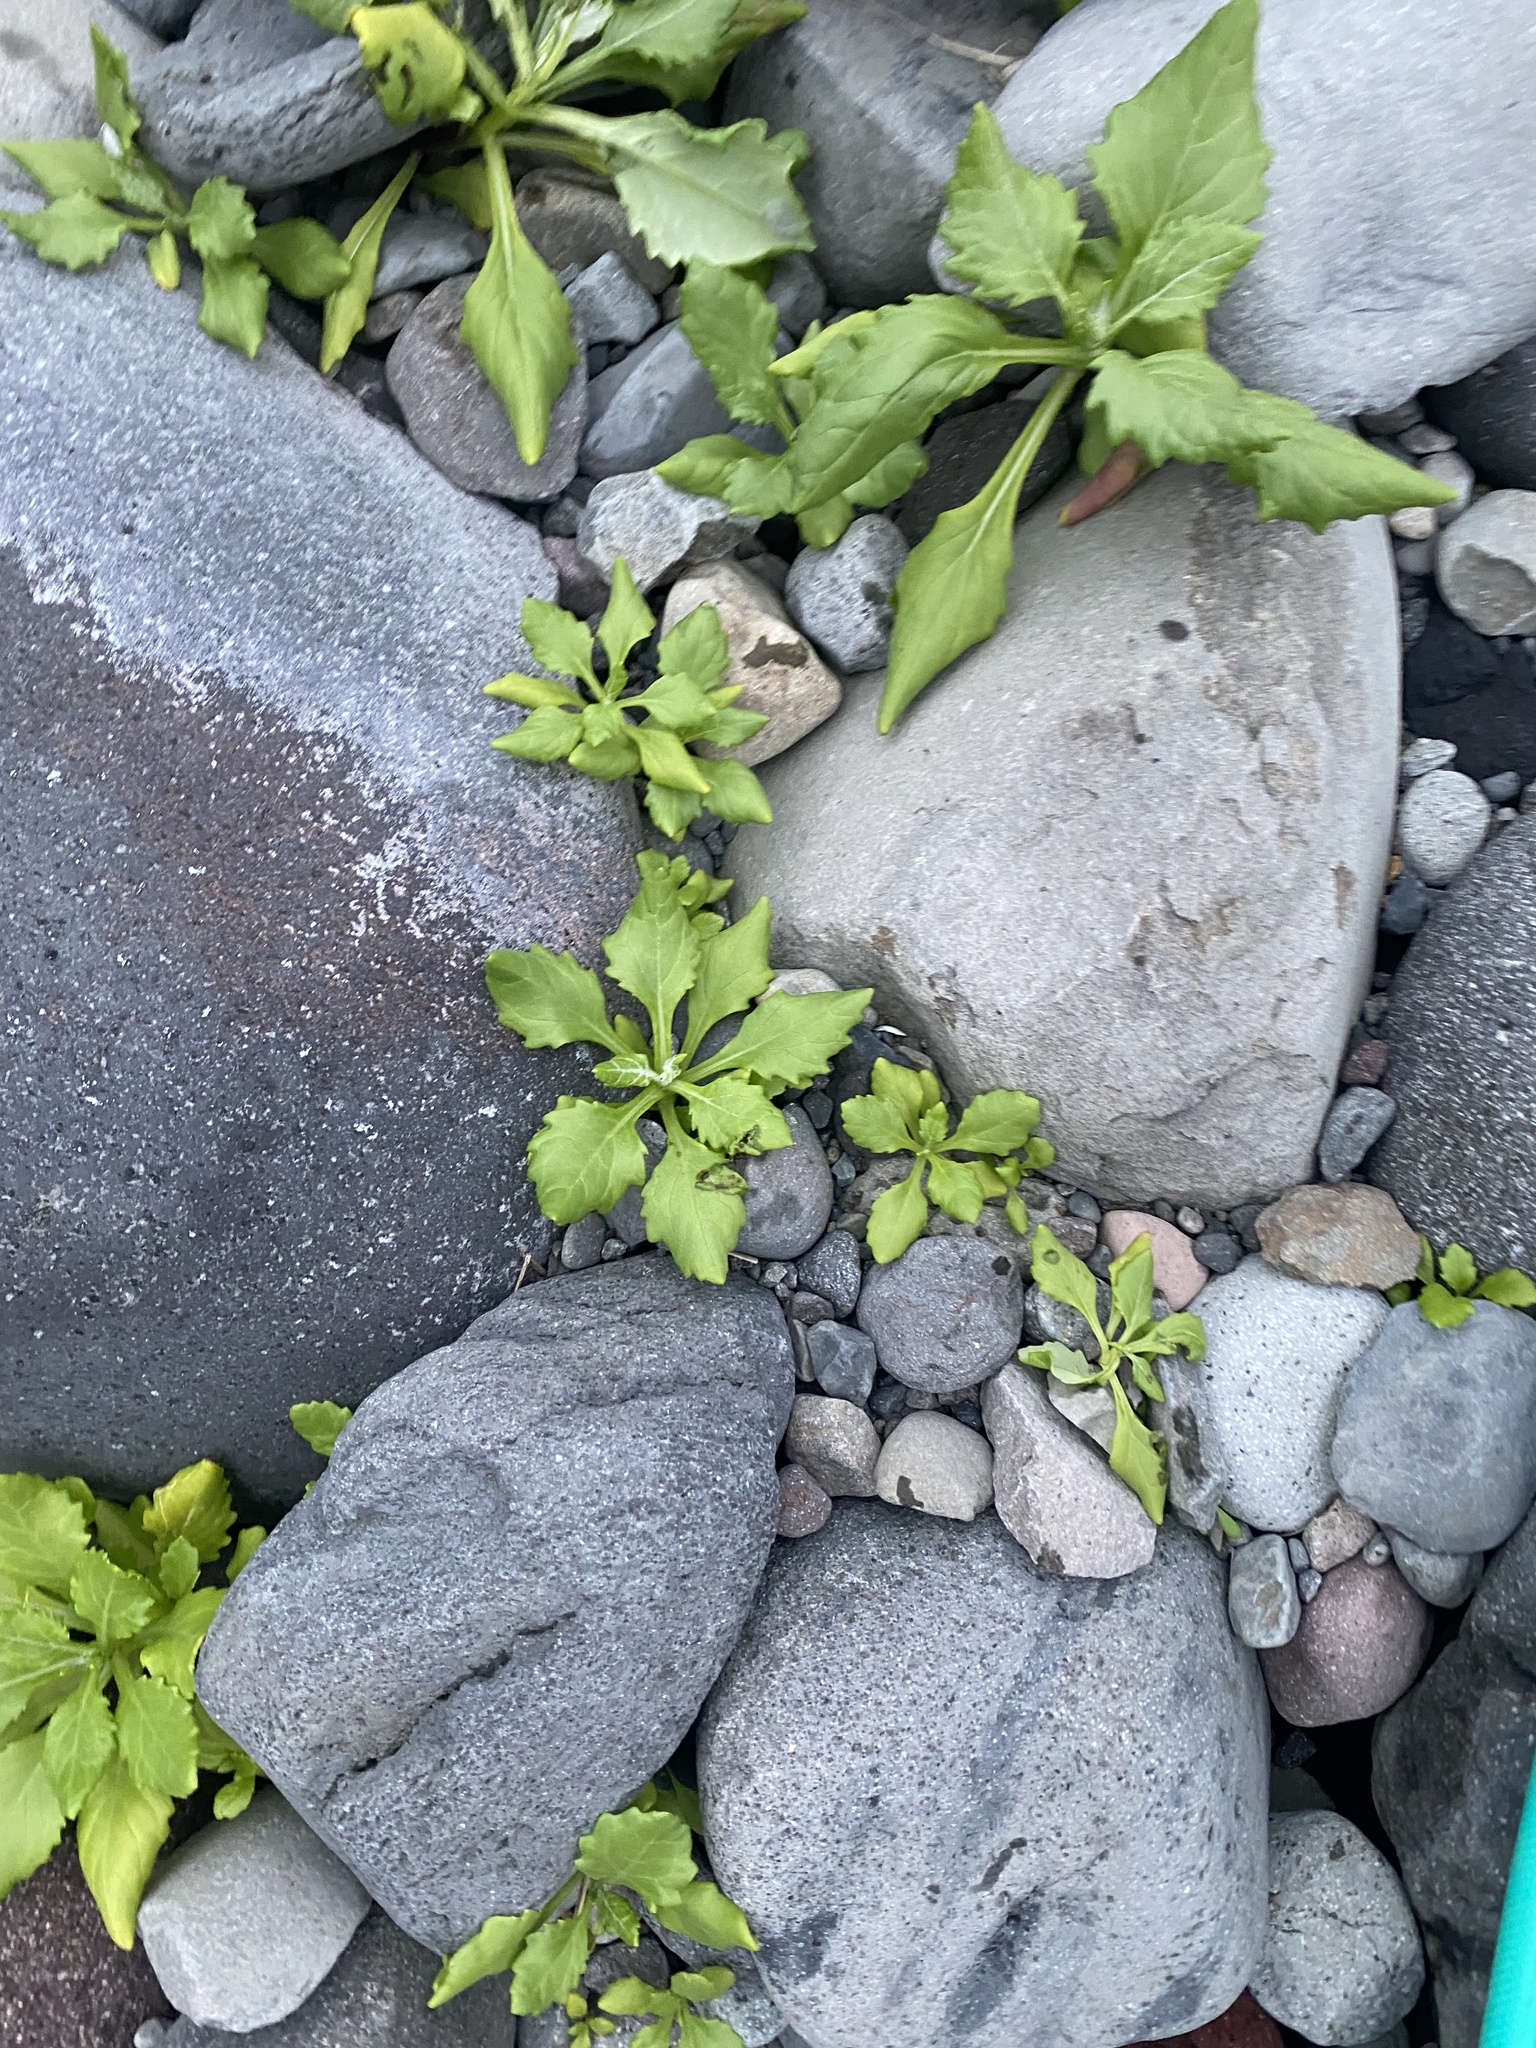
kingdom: Plantae
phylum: Tracheophyta
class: Magnoliopsida
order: Asterales
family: Asteraceae
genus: Jacobaea
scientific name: Jacobaea pseudoarnica
